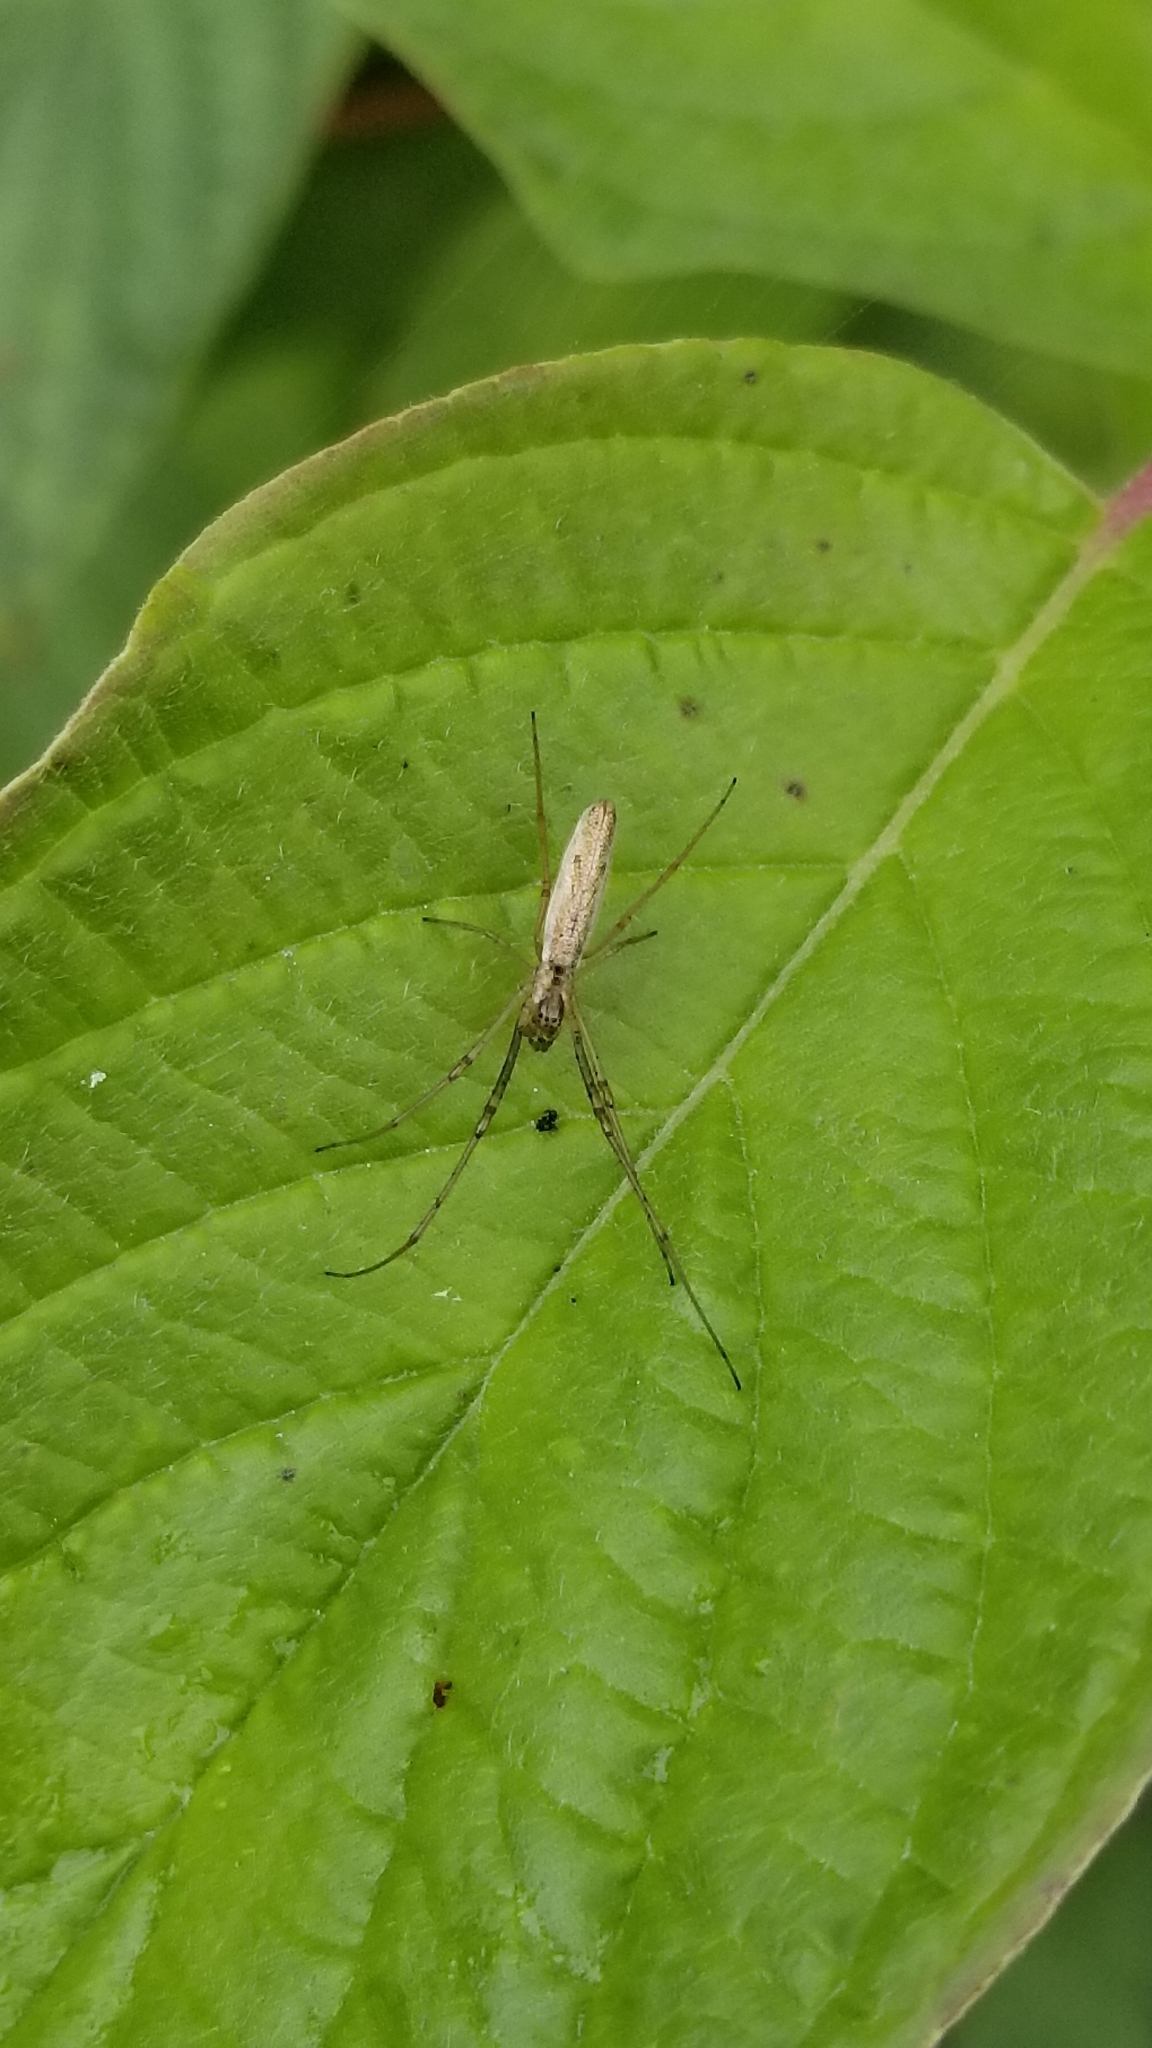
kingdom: Animalia
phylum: Arthropoda
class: Arachnida
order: Araneae
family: Tetragnathidae
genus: Tetragnatha
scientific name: Tetragnatha
